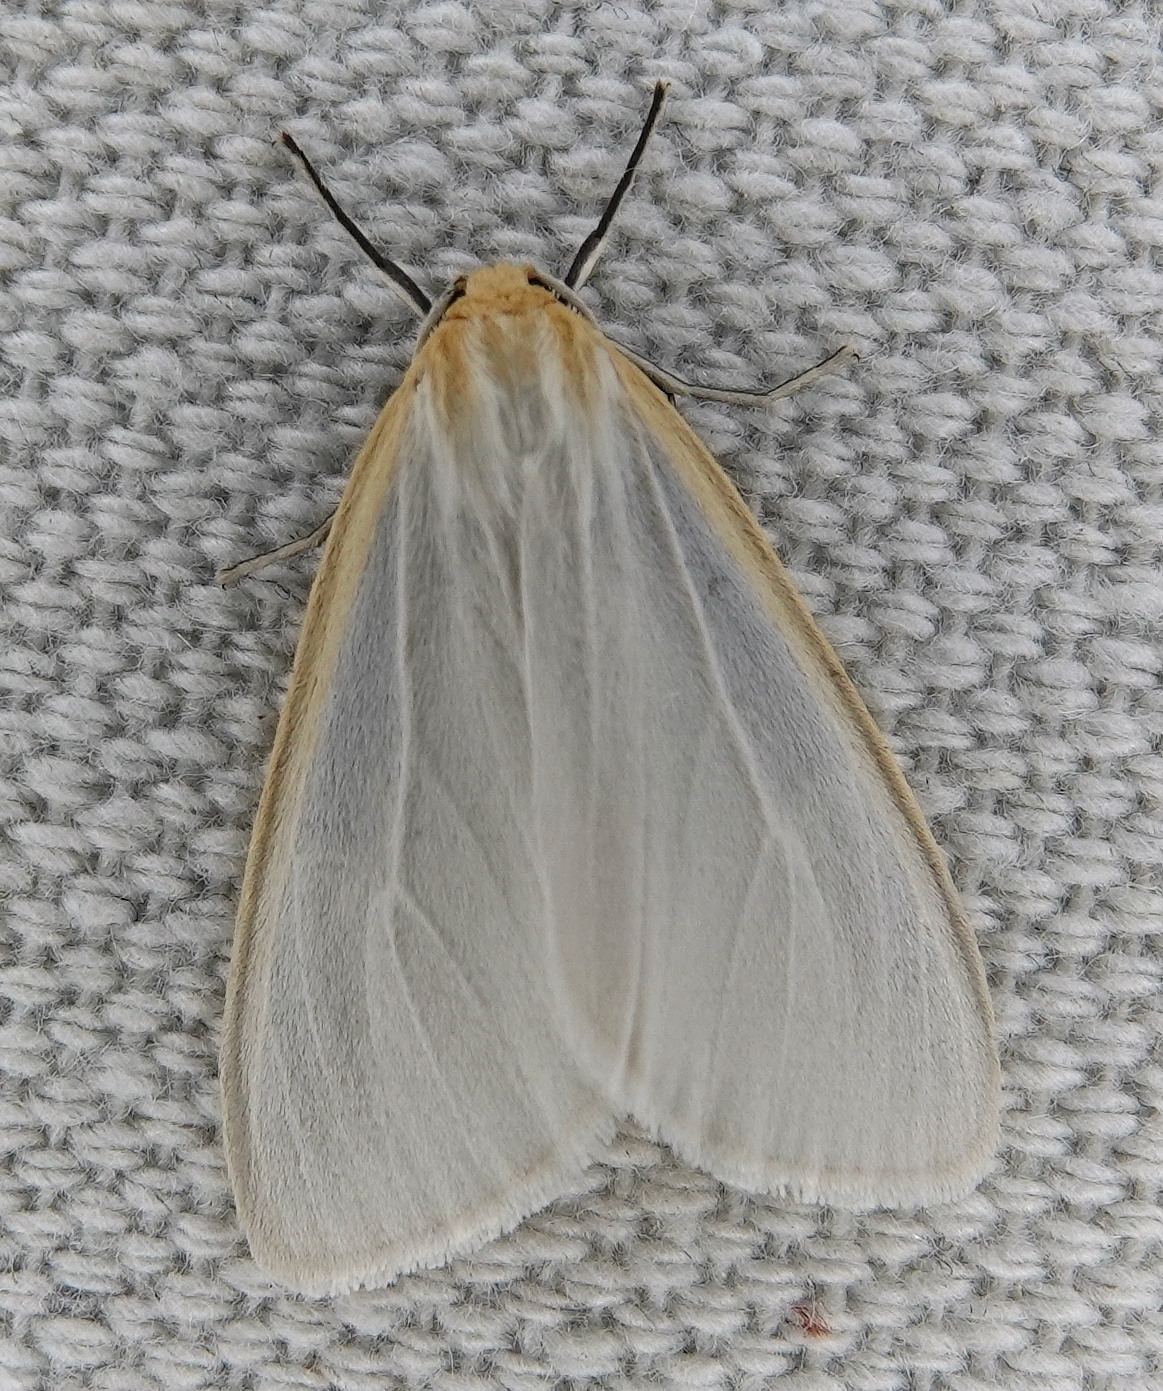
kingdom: Animalia
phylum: Arthropoda
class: Insecta
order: Lepidoptera
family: Erebidae
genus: Cycnia
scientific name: Cycnia tenera
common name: Delicate cycnia moth
